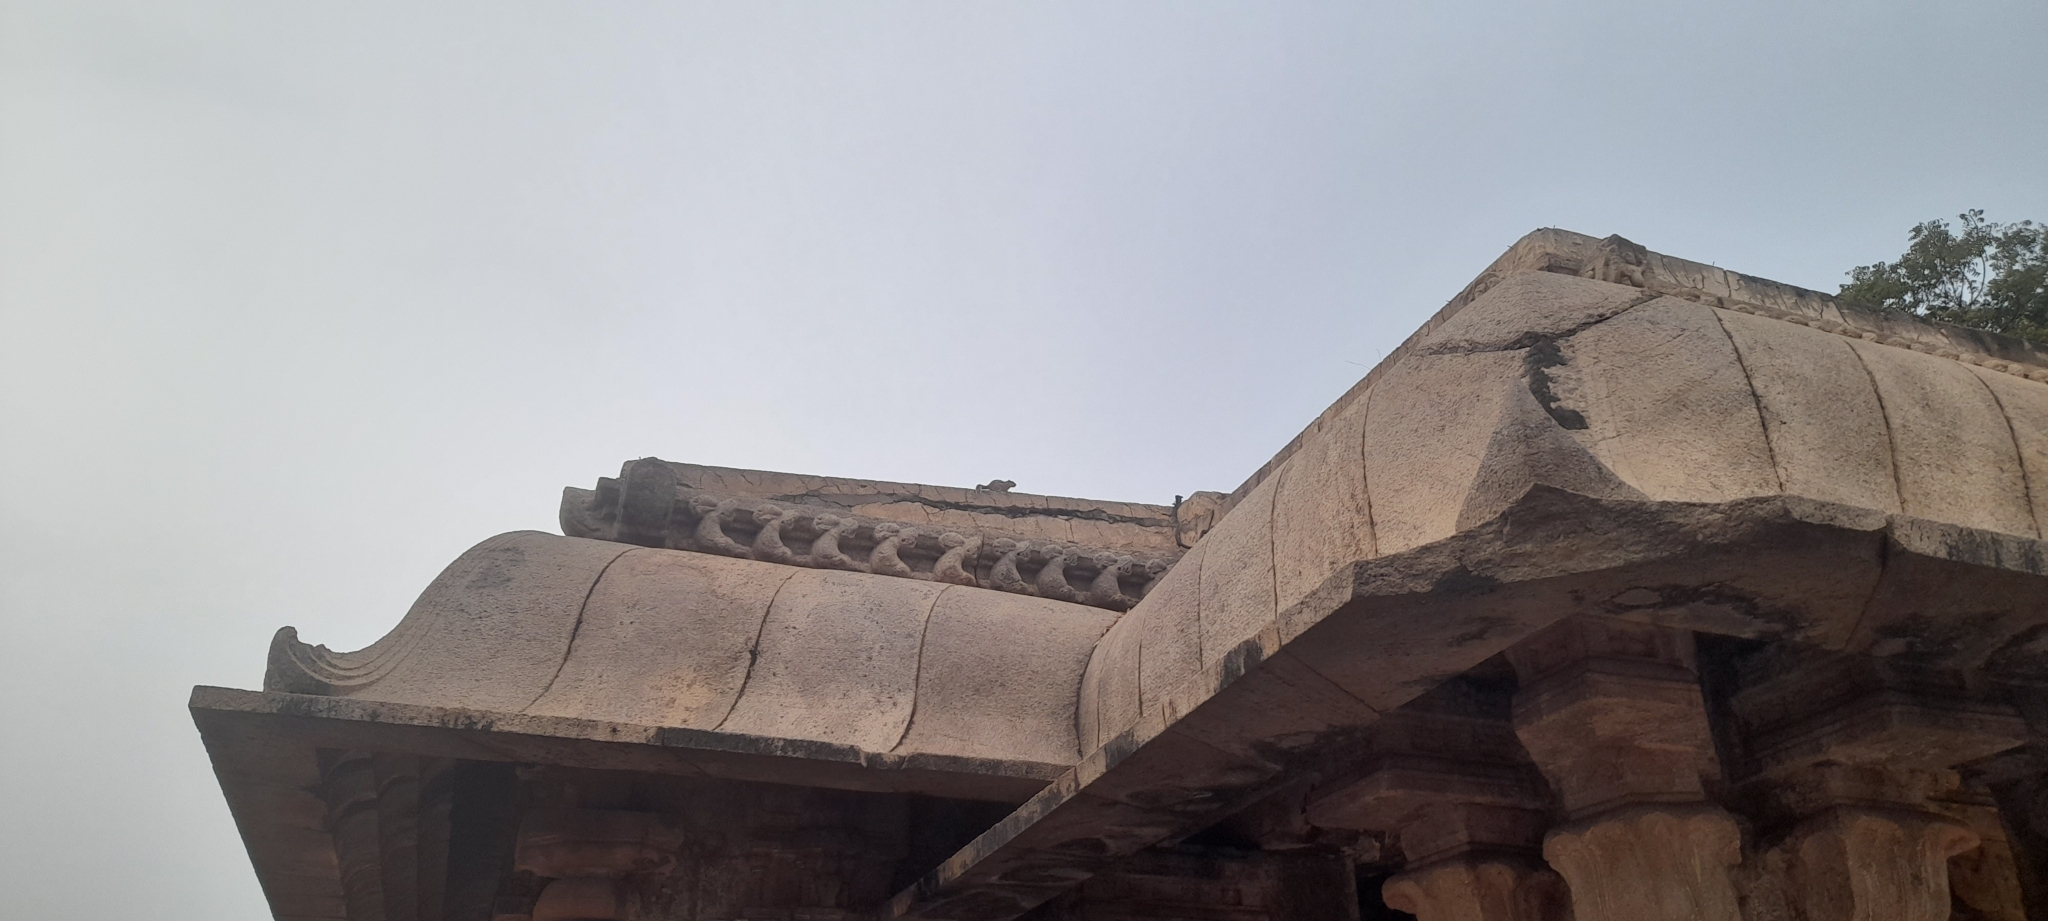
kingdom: Animalia
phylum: Chordata
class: Mammalia
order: Rodentia
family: Sciuridae
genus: Funambulus
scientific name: Funambulus palmarum
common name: Indian palm squirrel
